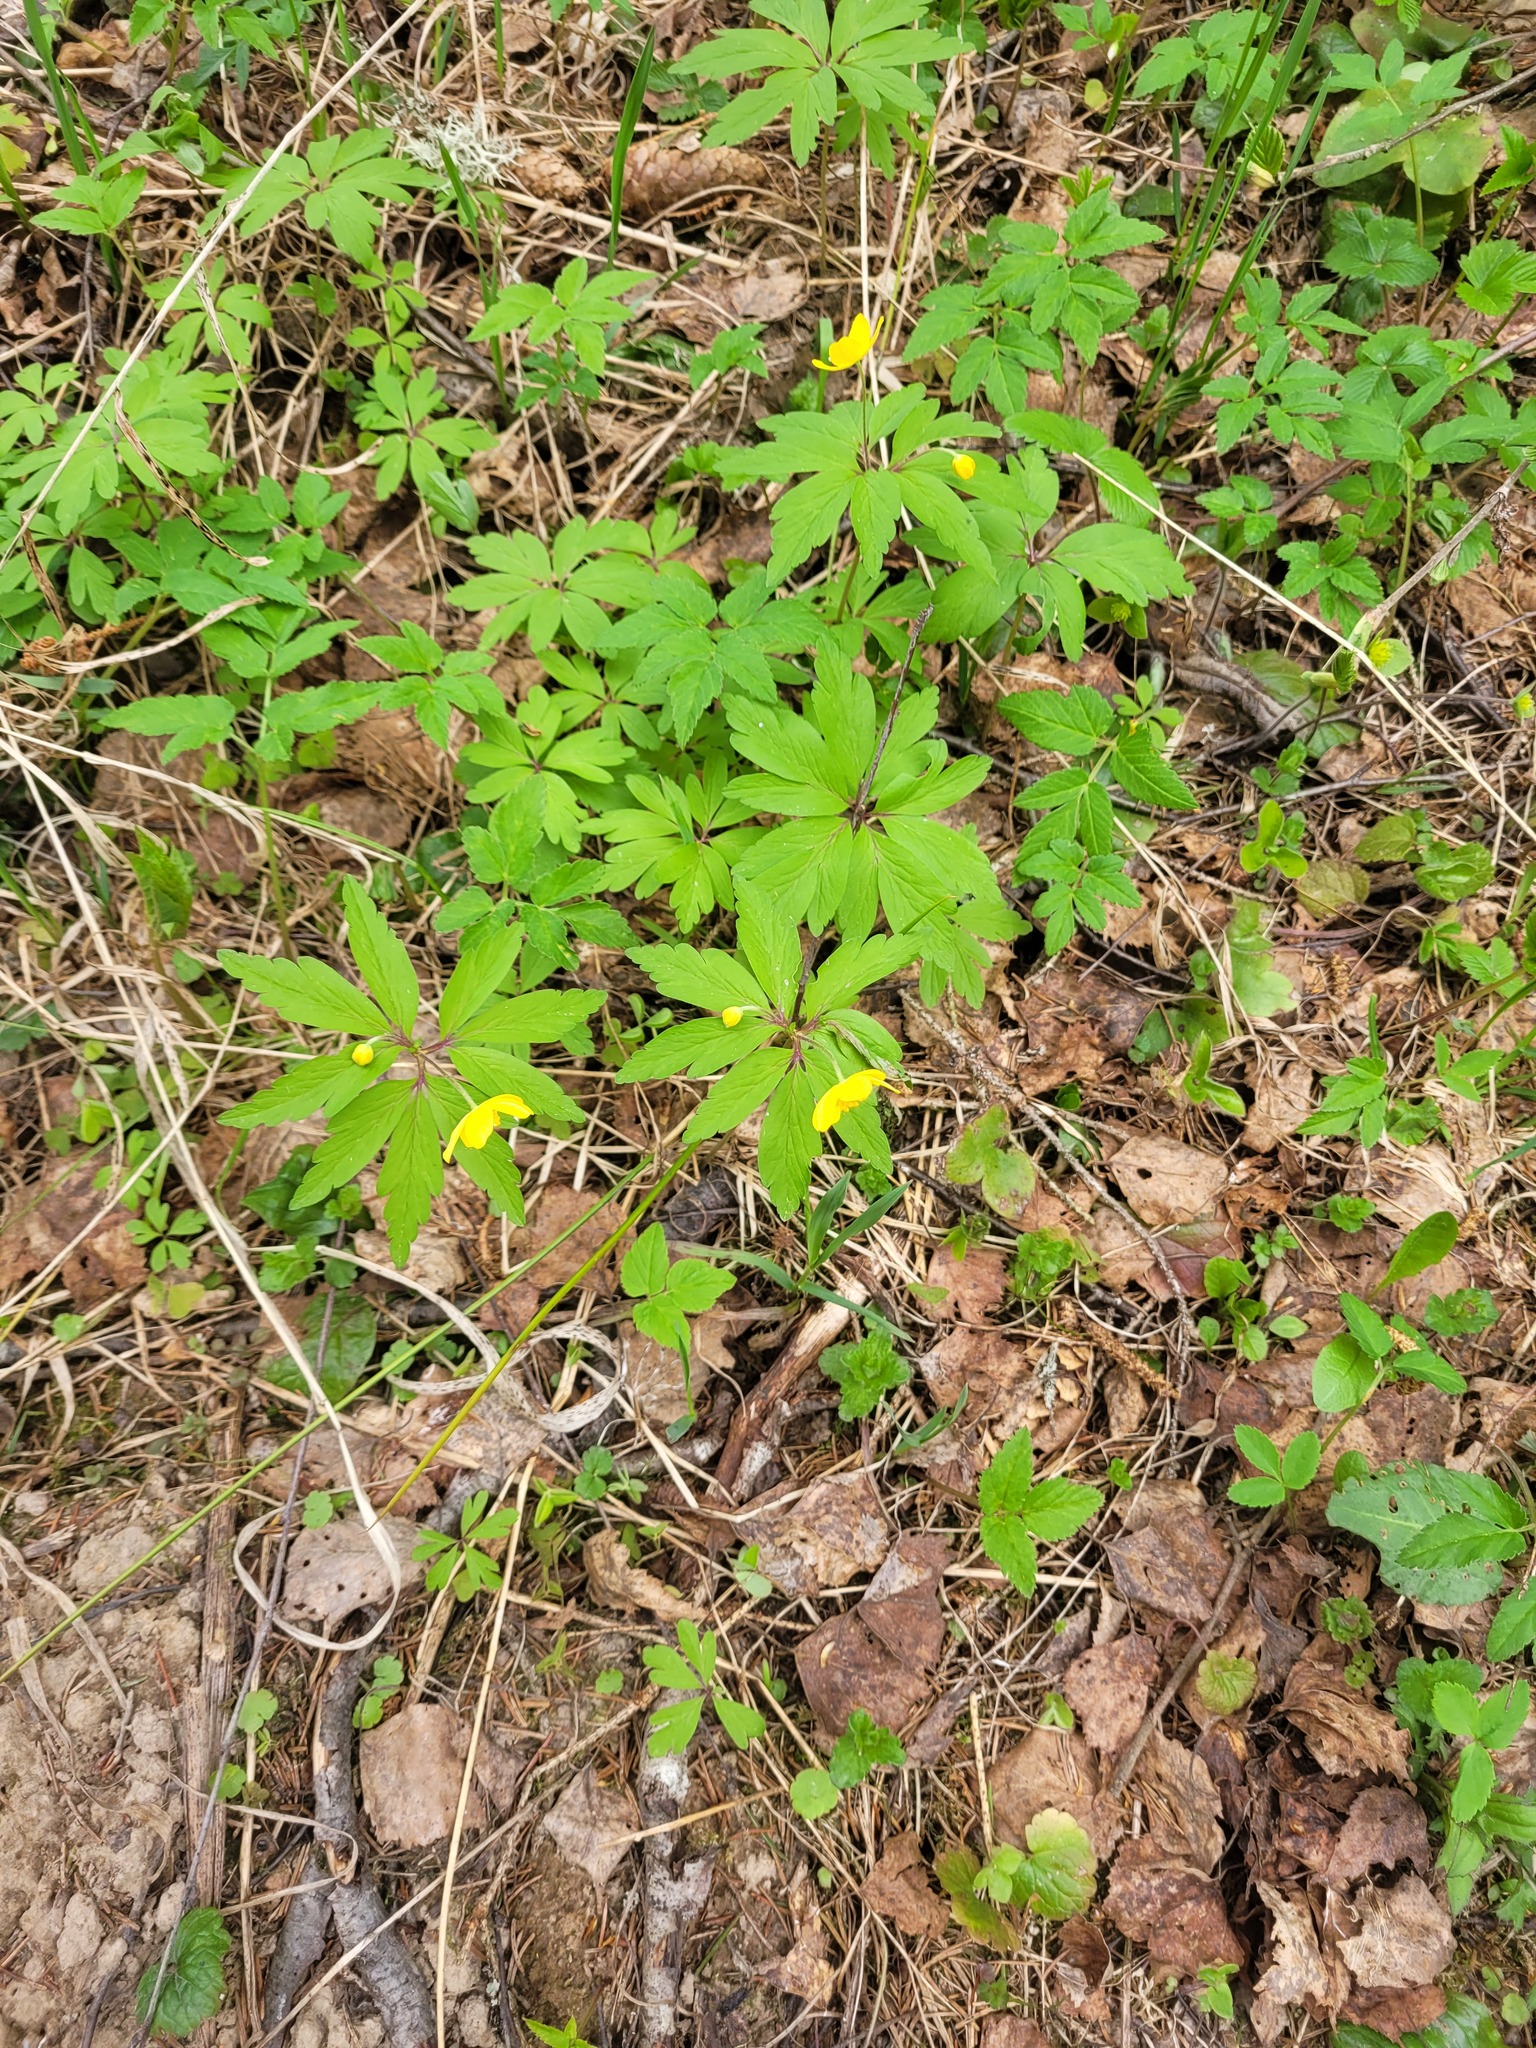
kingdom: Plantae
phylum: Tracheophyta
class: Magnoliopsida
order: Ranunculales
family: Ranunculaceae
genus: Anemone
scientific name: Anemone ranunculoides
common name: Yellow anemone
